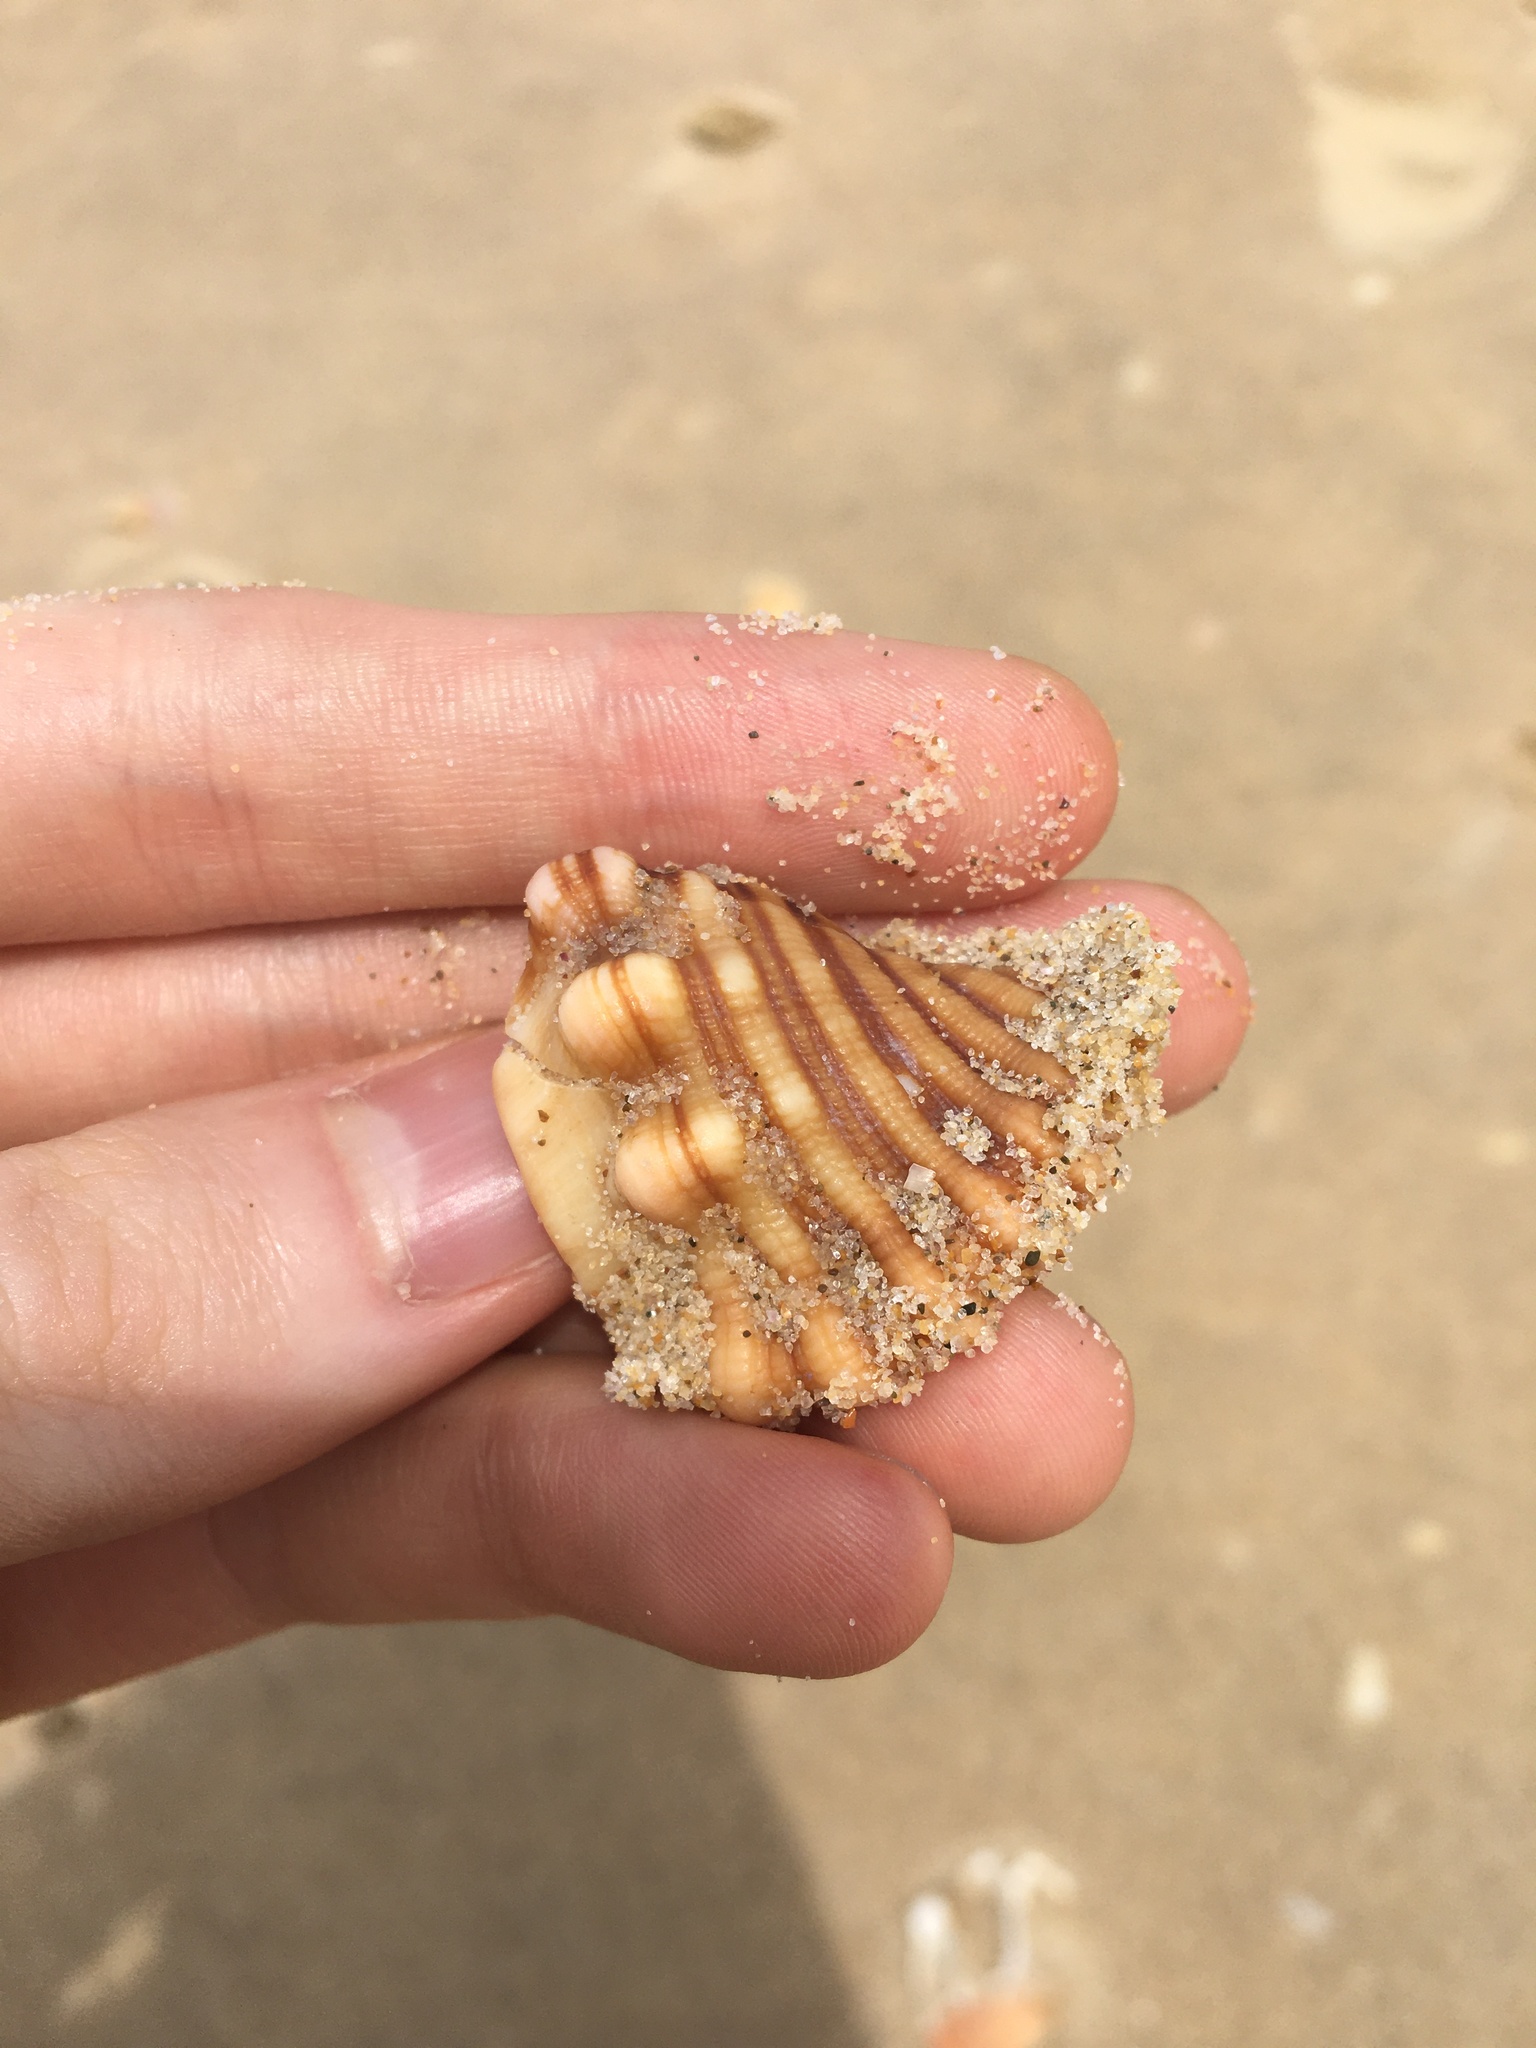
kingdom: Animalia
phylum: Mollusca
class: Gastropoda
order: Littorinimorpha
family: Cymatiidae
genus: Cabestana
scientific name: Cabestana spengleri
